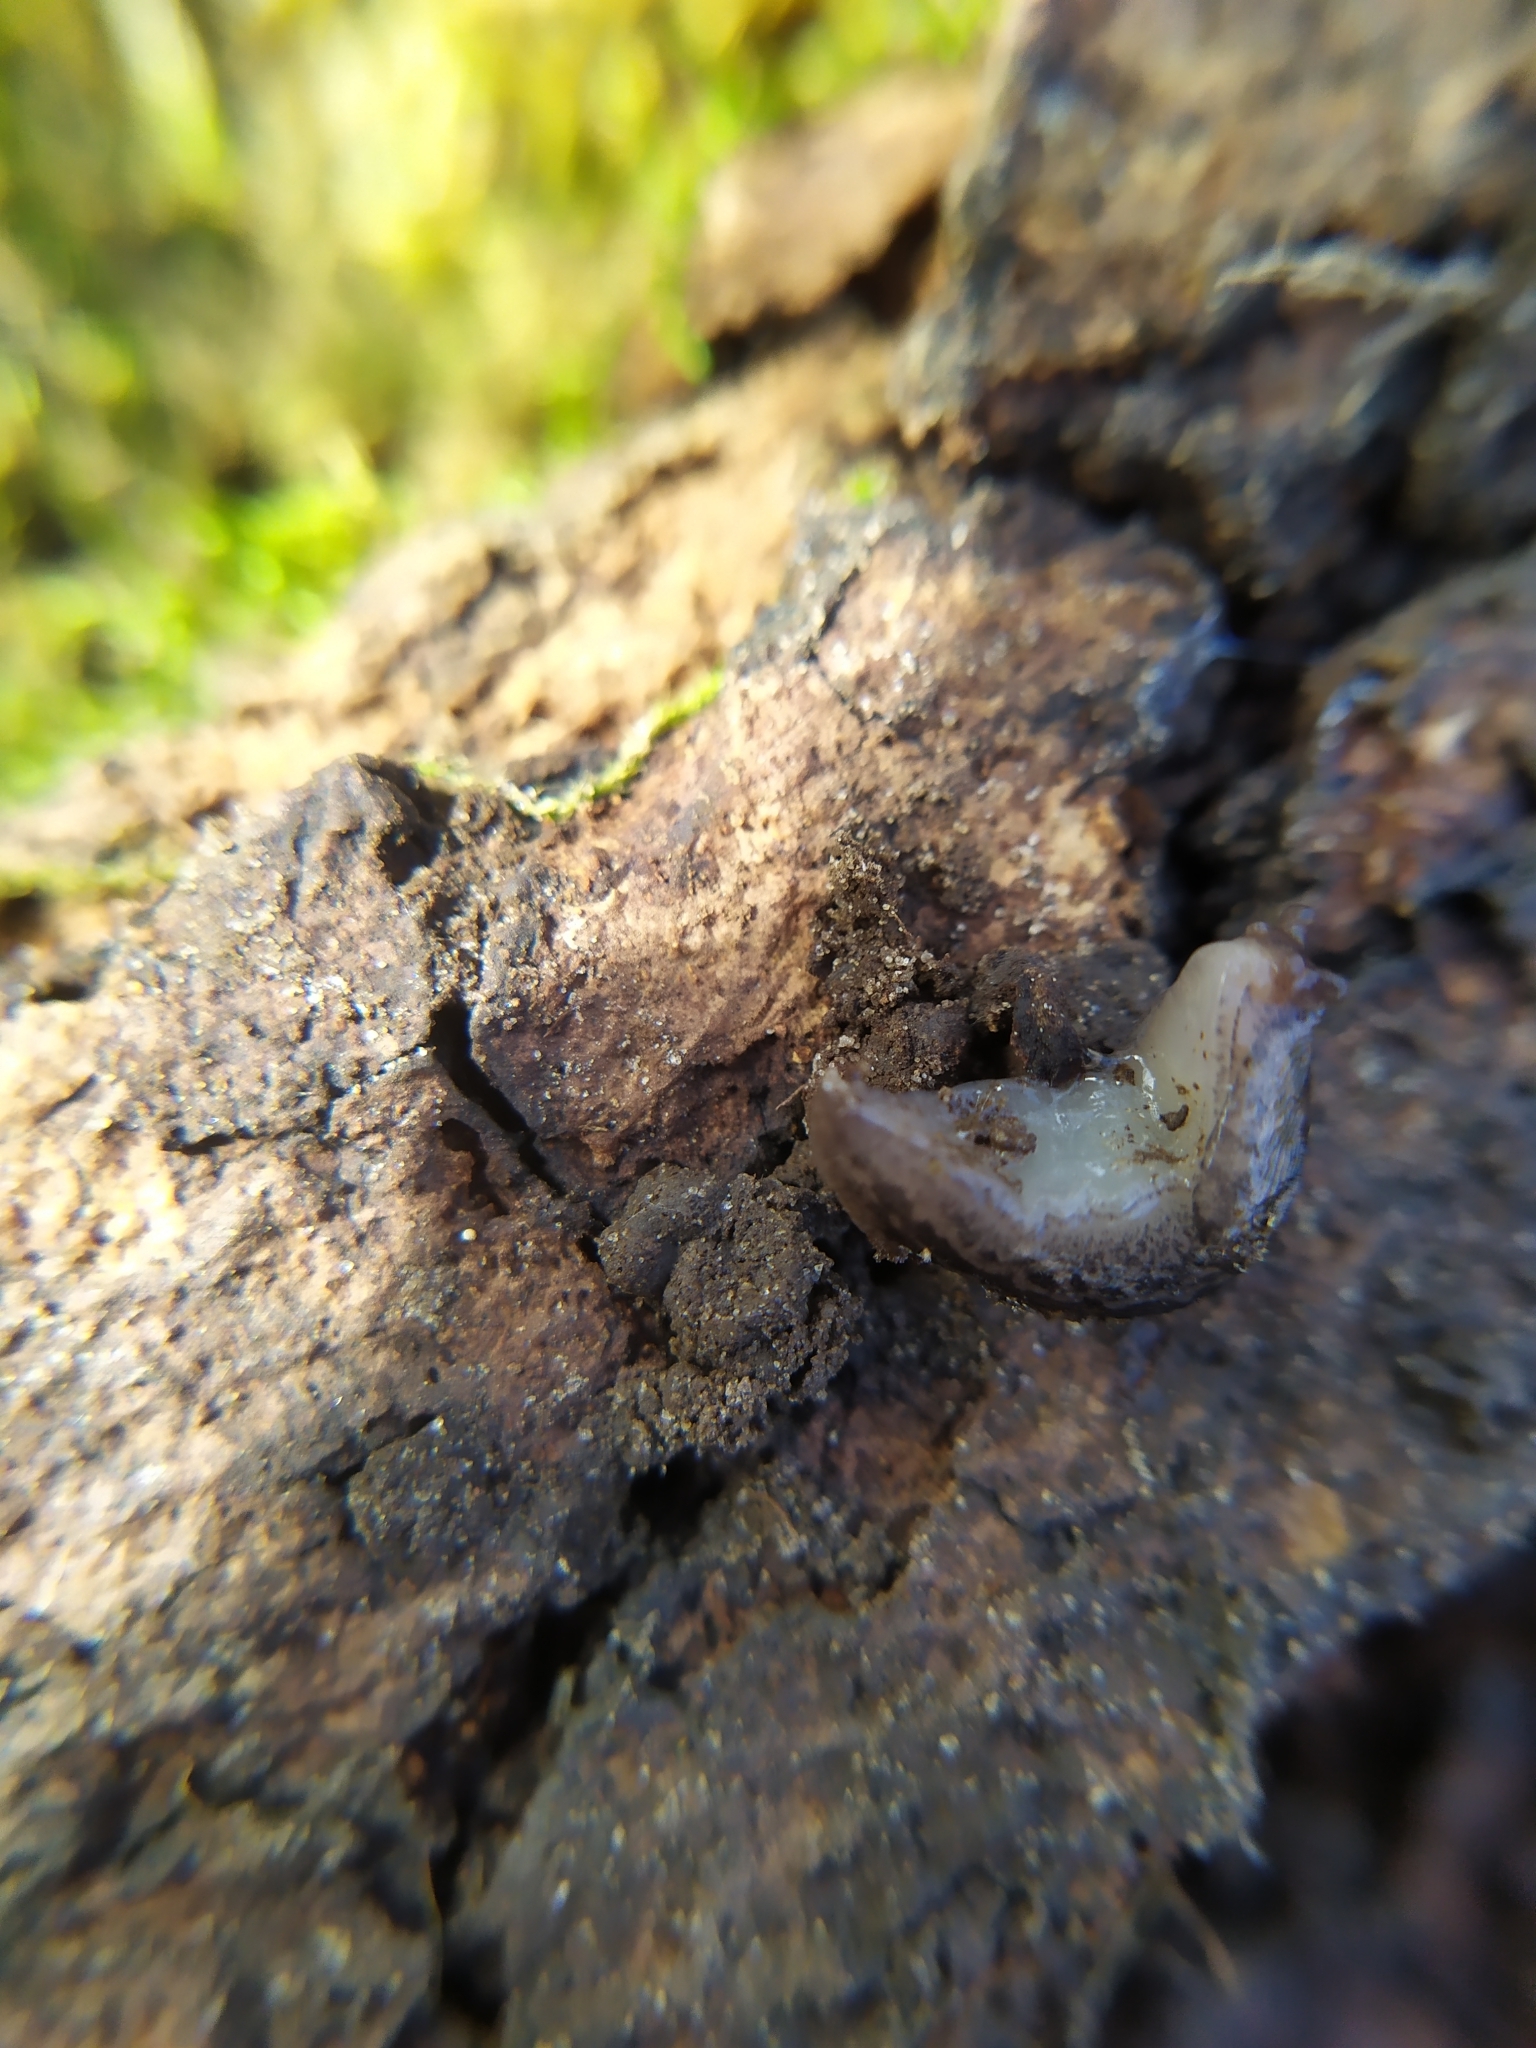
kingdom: Animalia
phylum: Mollusca
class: Gastropoda
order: Stylommatophora
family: Limacidae
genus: Limax
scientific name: Limax maximus
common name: Great grey slug
